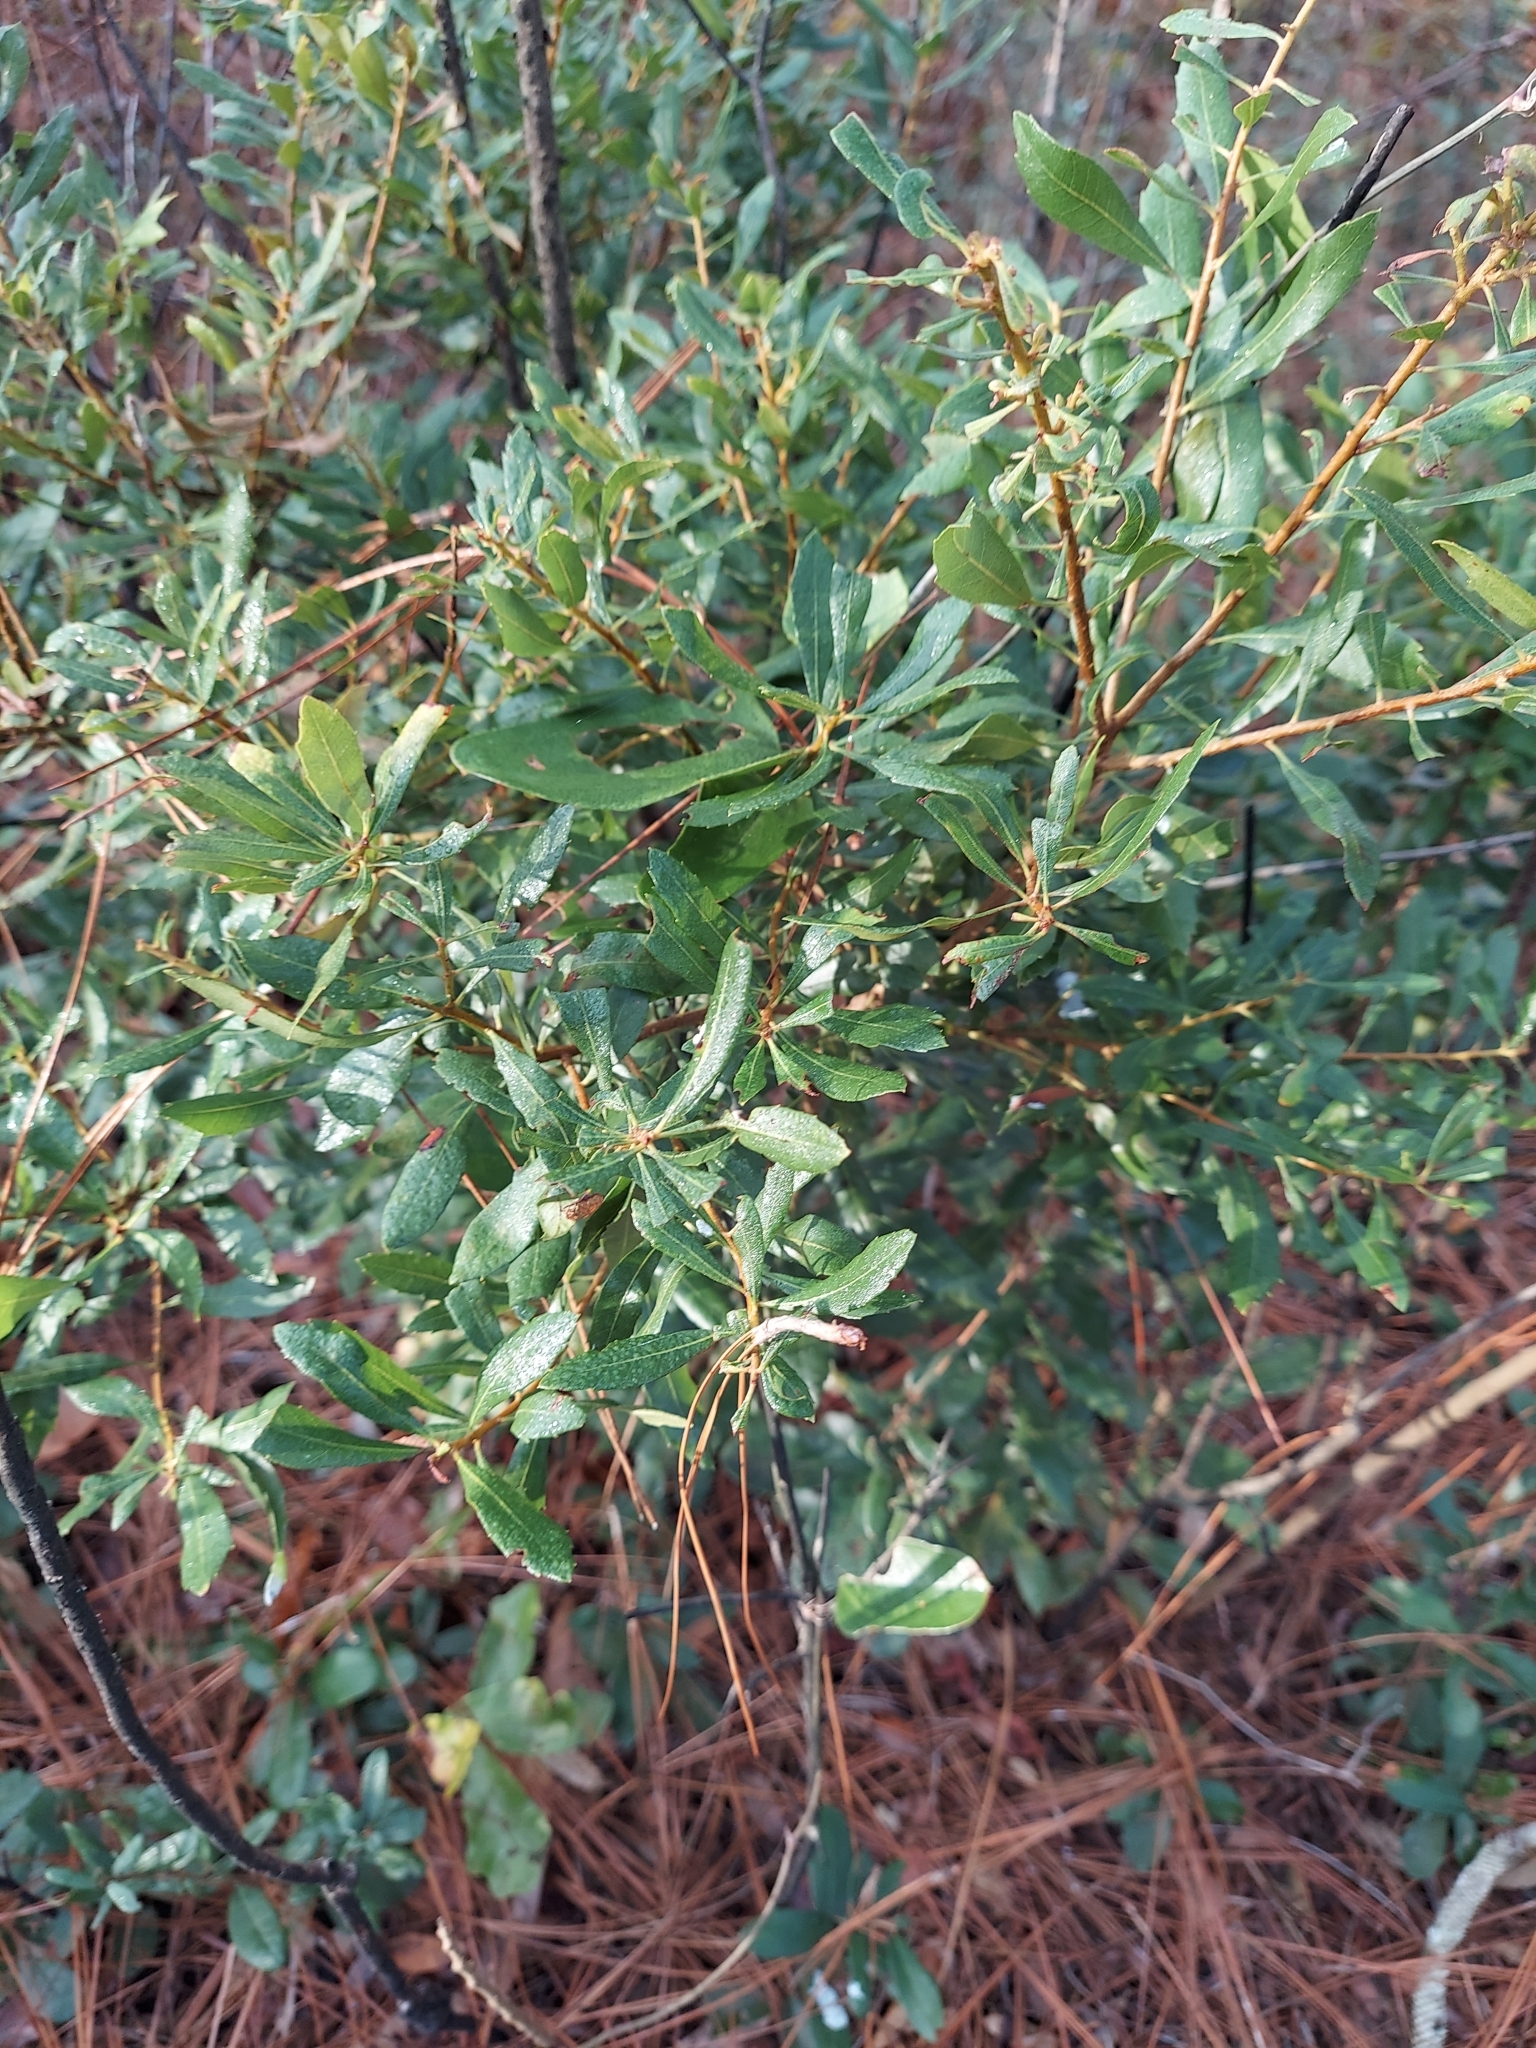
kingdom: Plantae
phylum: Tracheophyta
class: Magnoliopsida
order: Fagales
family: Myricaceae
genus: Morella
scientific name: Morella cerifera
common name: Wax myrtle
